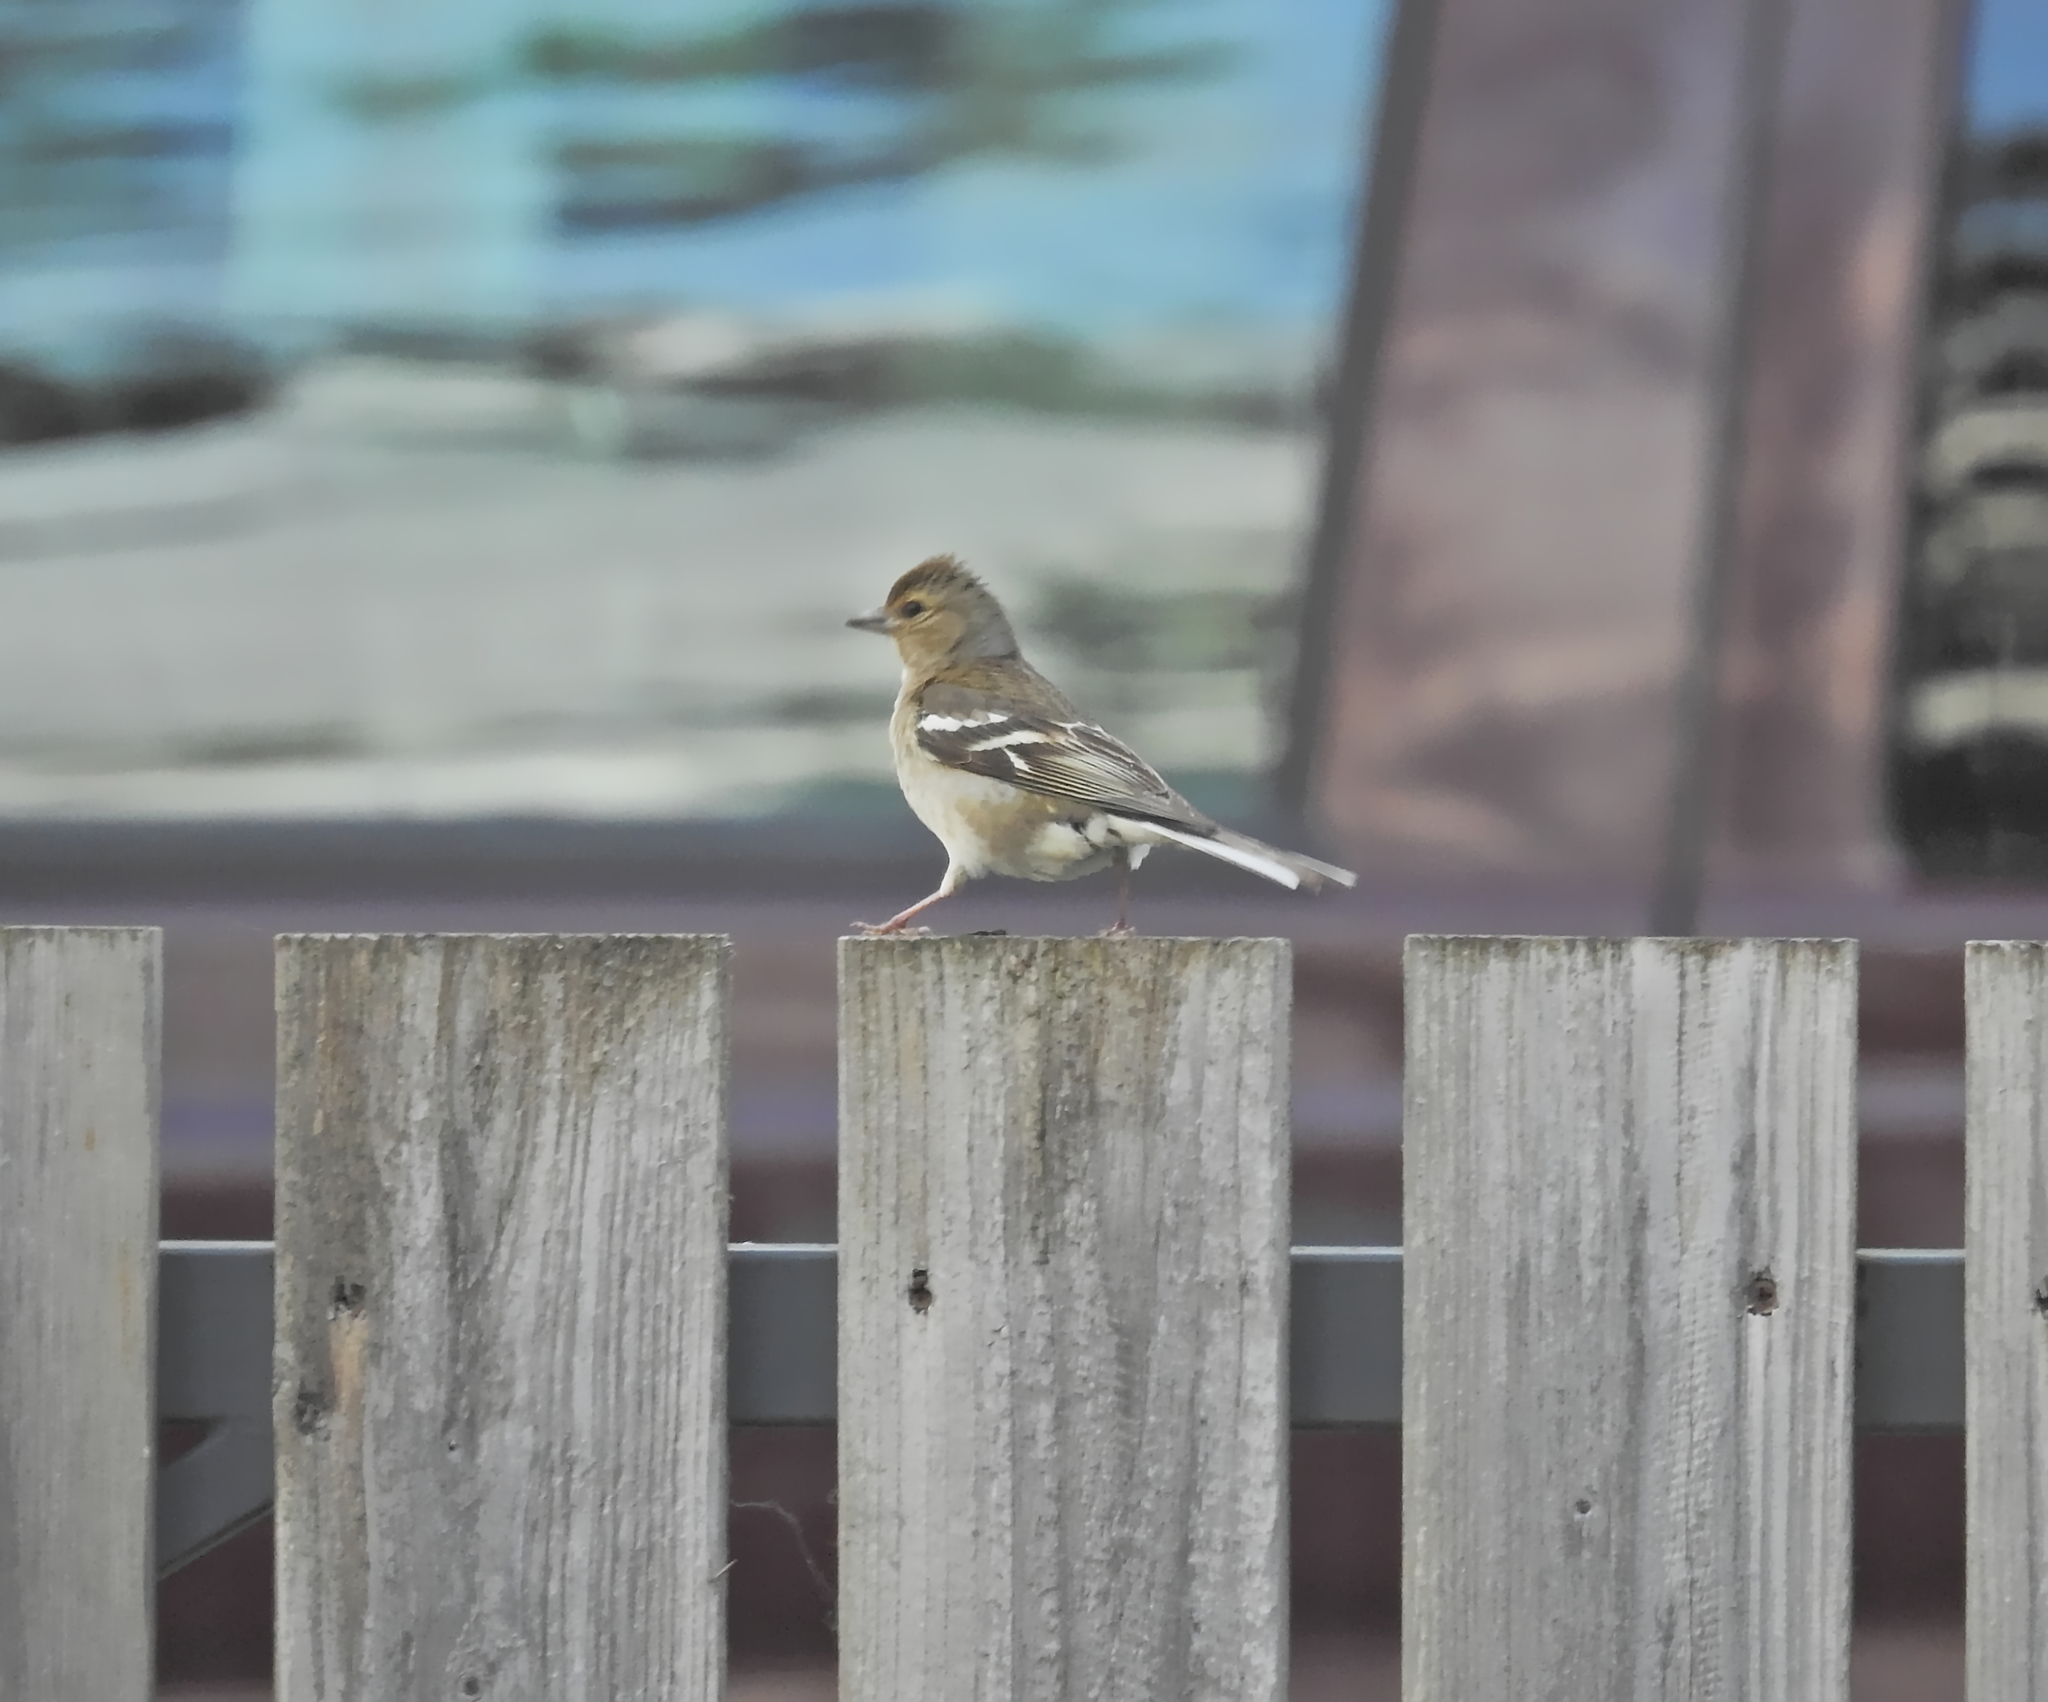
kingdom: Animalia
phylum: Chordata
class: Aves
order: Passeriformes
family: Fringillidae
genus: Fringilla
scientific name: Fringilla coelebs
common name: Common chaffinch
